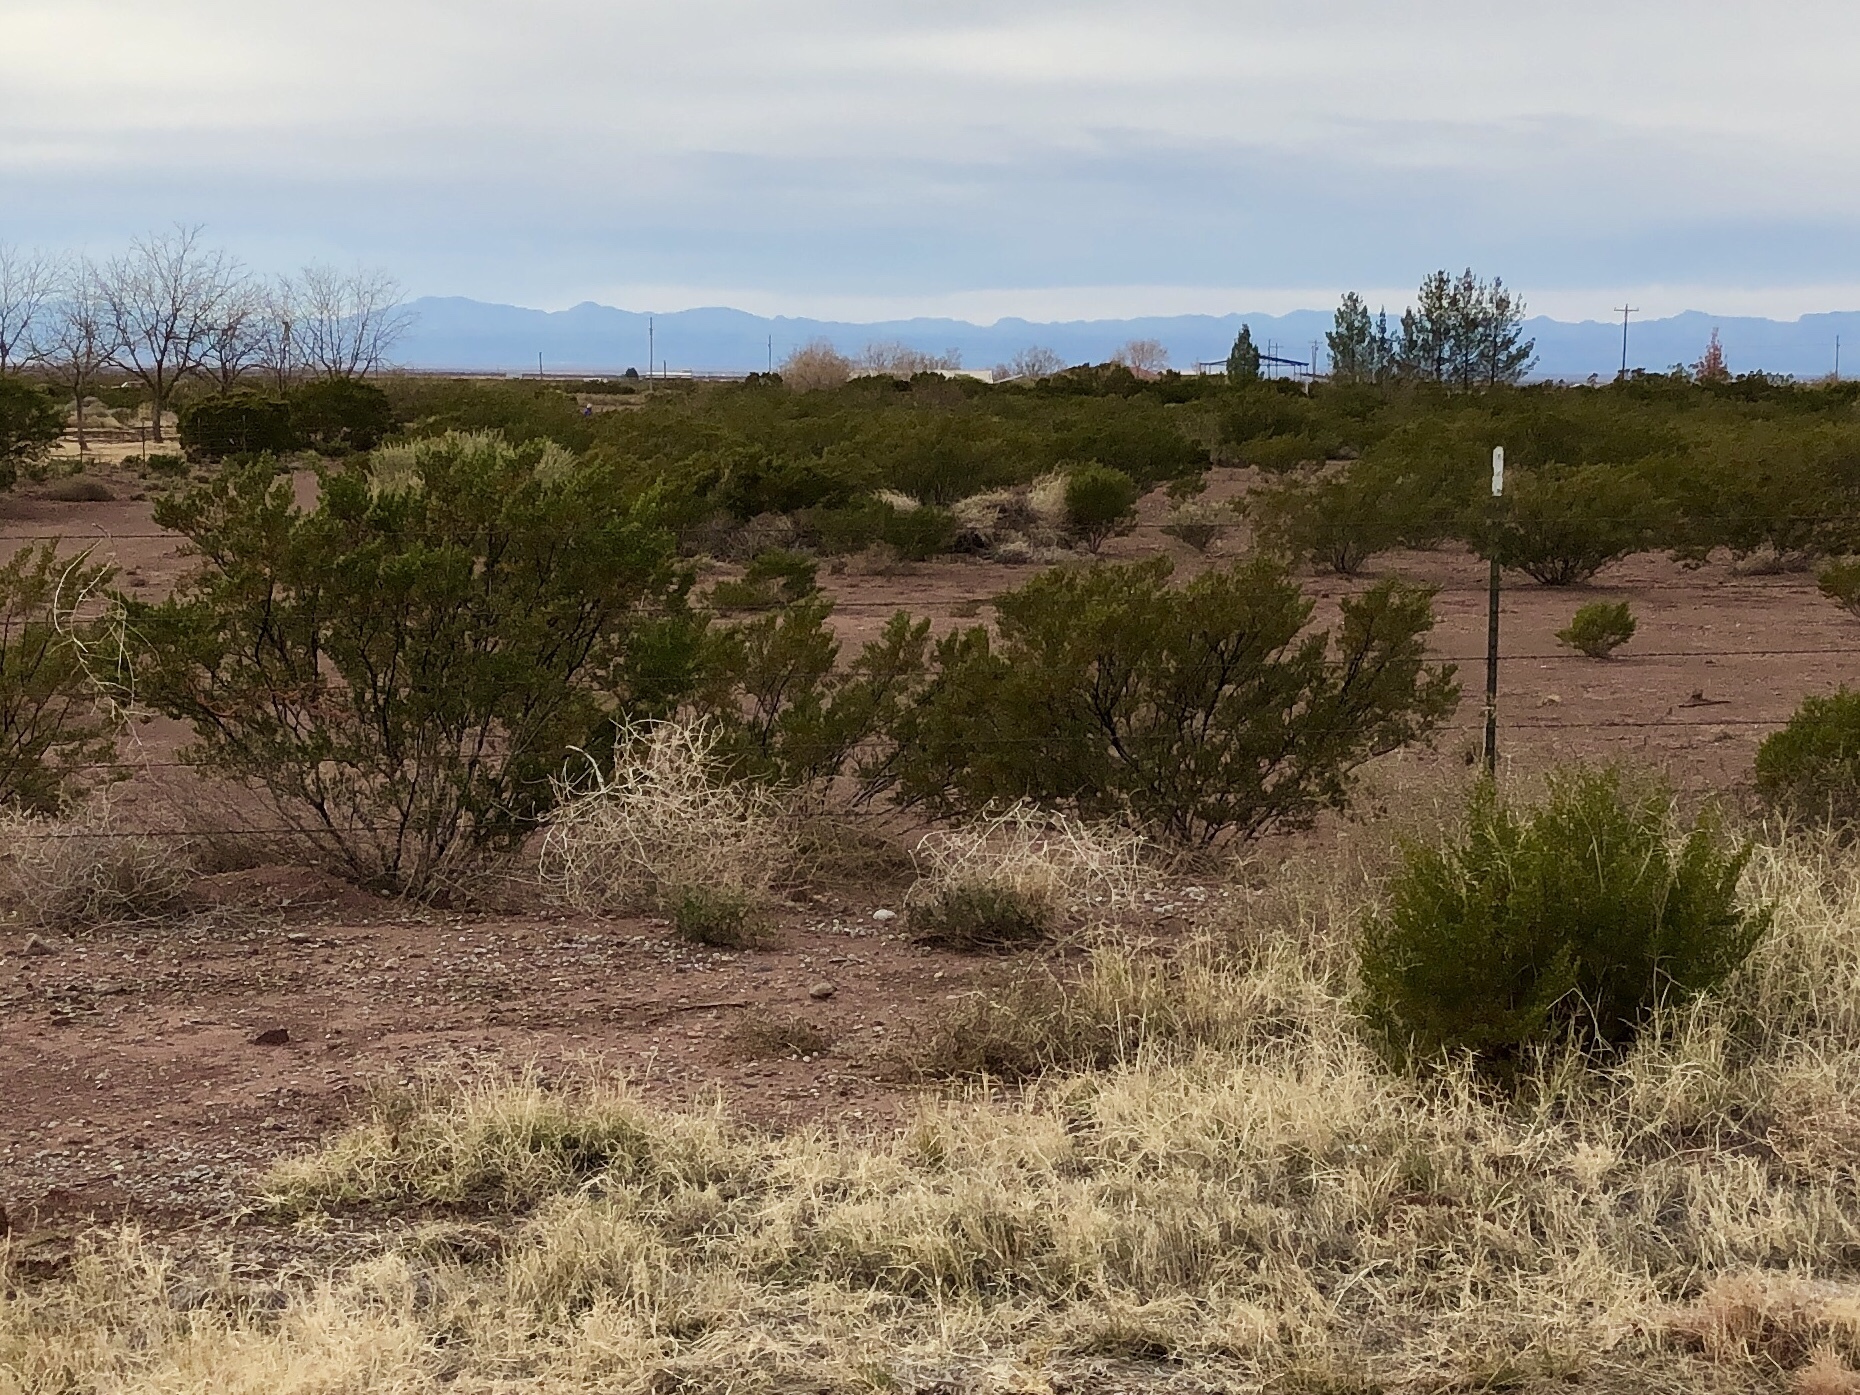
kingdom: Plantae
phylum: Tracheophyta
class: Magnoliopsida
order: Zygophyllales
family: Zygophyllaceae
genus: Larrea
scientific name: Larrea tridentata
